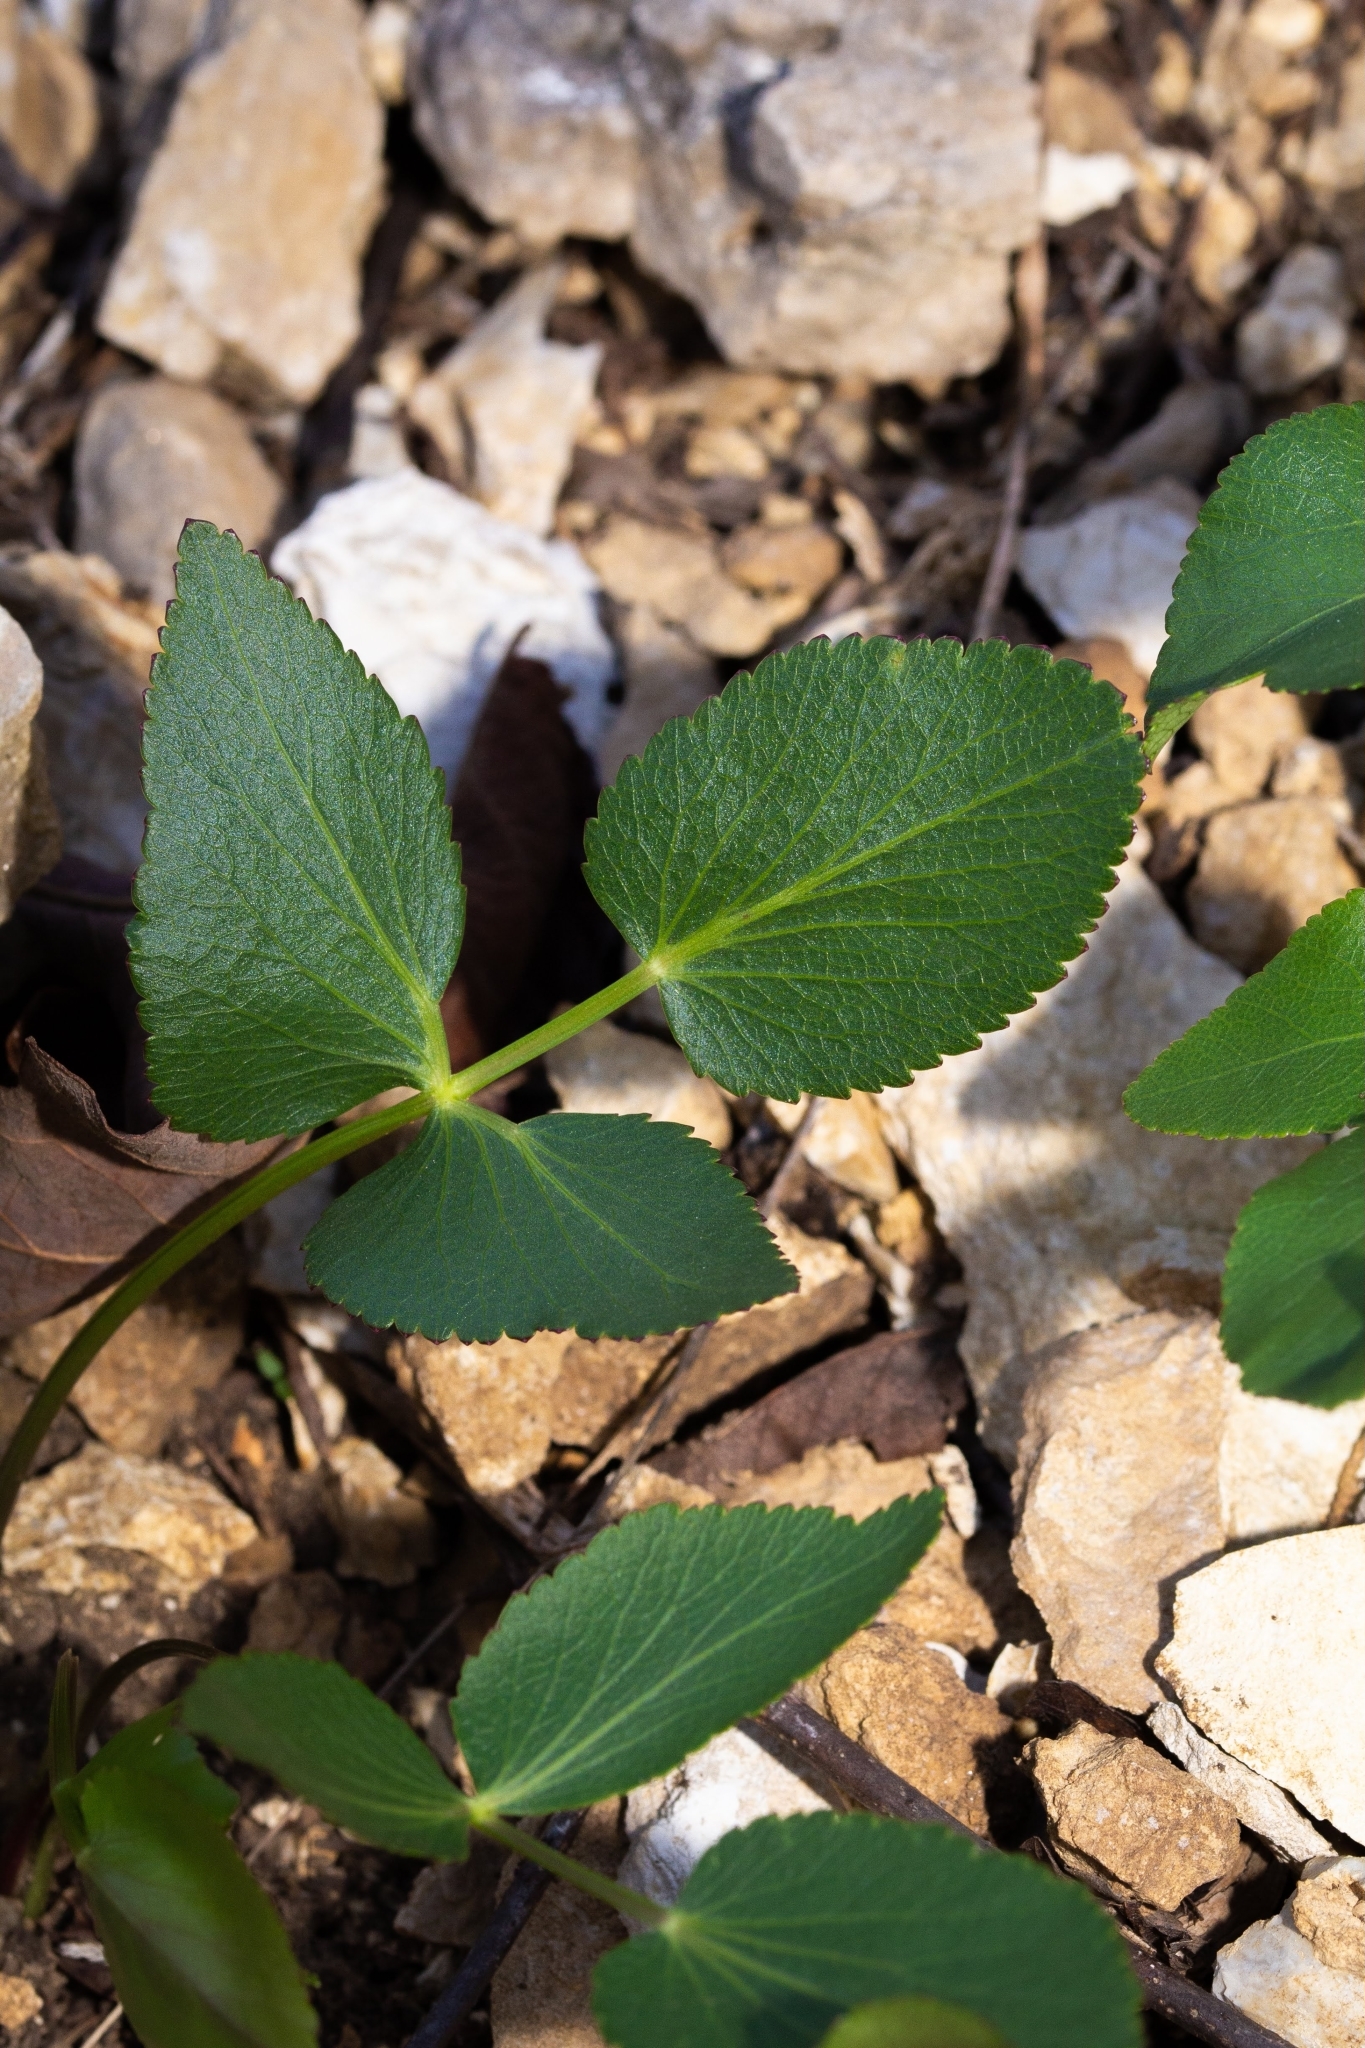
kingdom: Plantae
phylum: Tracheophyta
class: Magnoliopsida
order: Apiales
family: Apiaceae
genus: Thaspium
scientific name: Thaspium trifoliatum
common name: Purple meadow-parsnip
